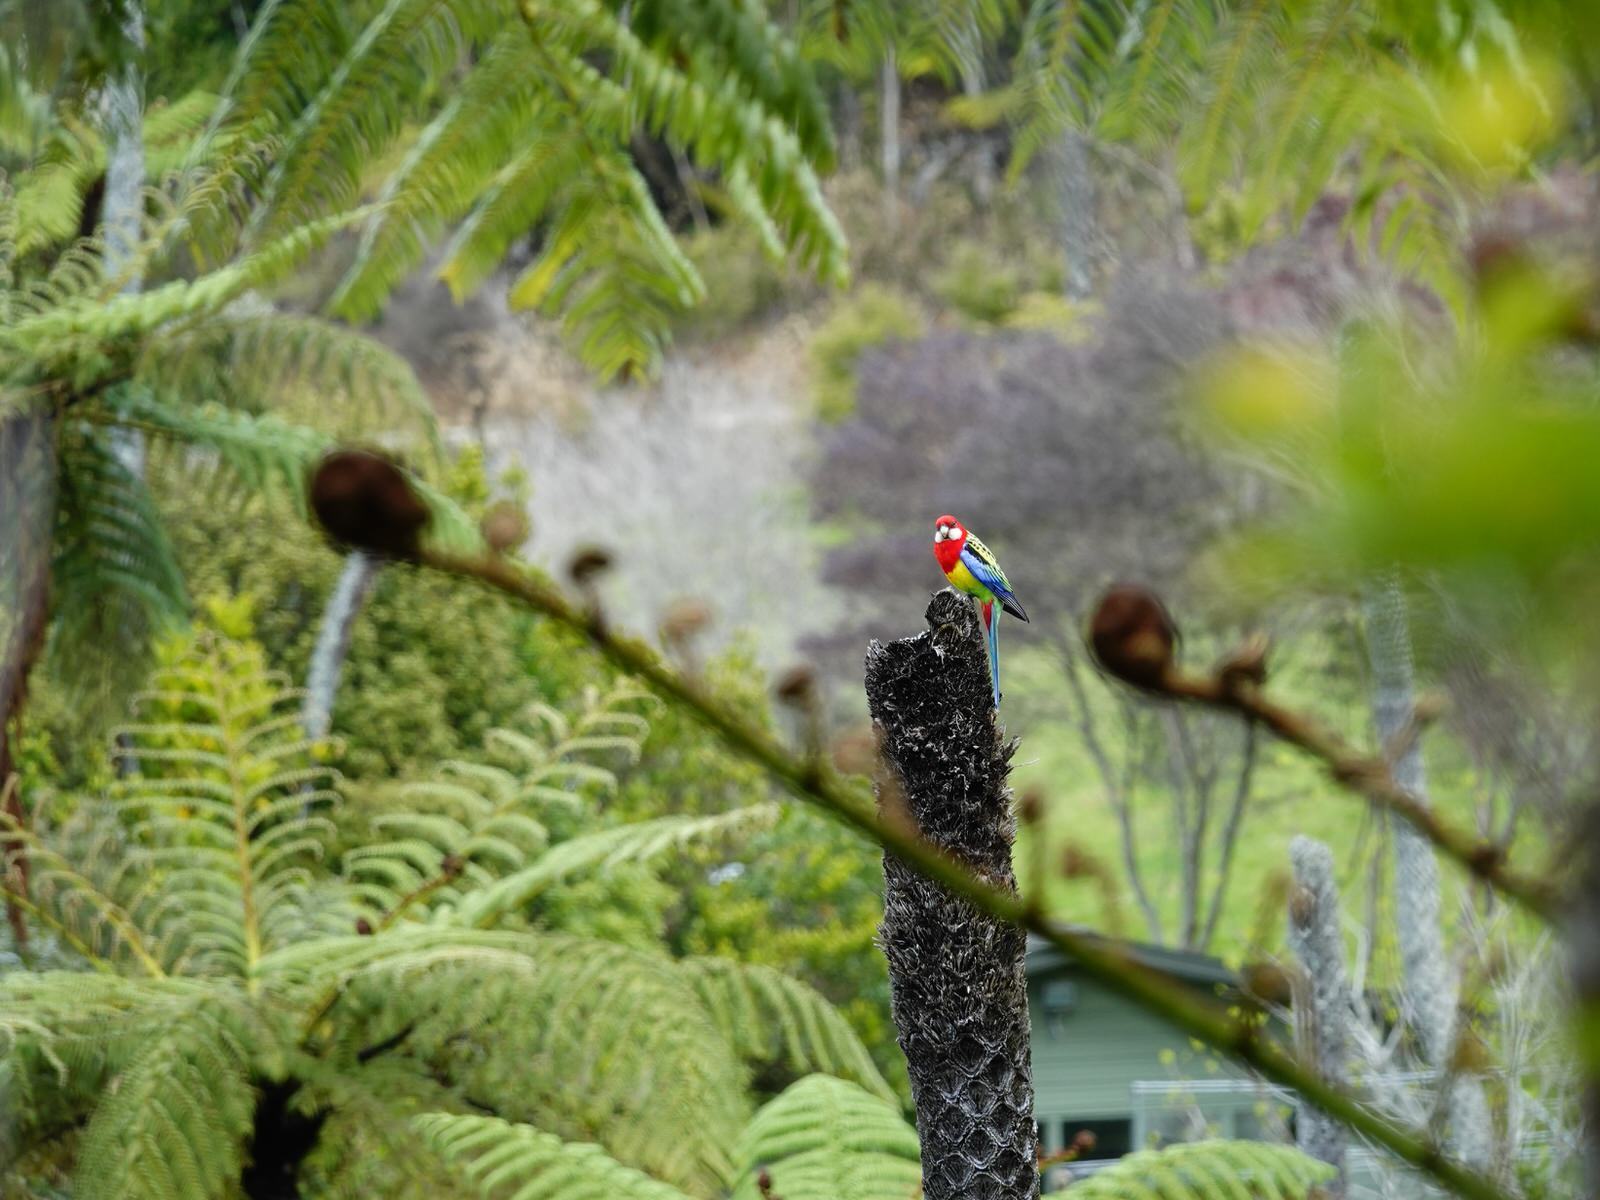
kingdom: Animalia
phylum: Chordata
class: Aves
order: Psittaciformes
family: Psittacidae
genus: Platycercus
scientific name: Platycercus eximius
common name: Eastern rosella
